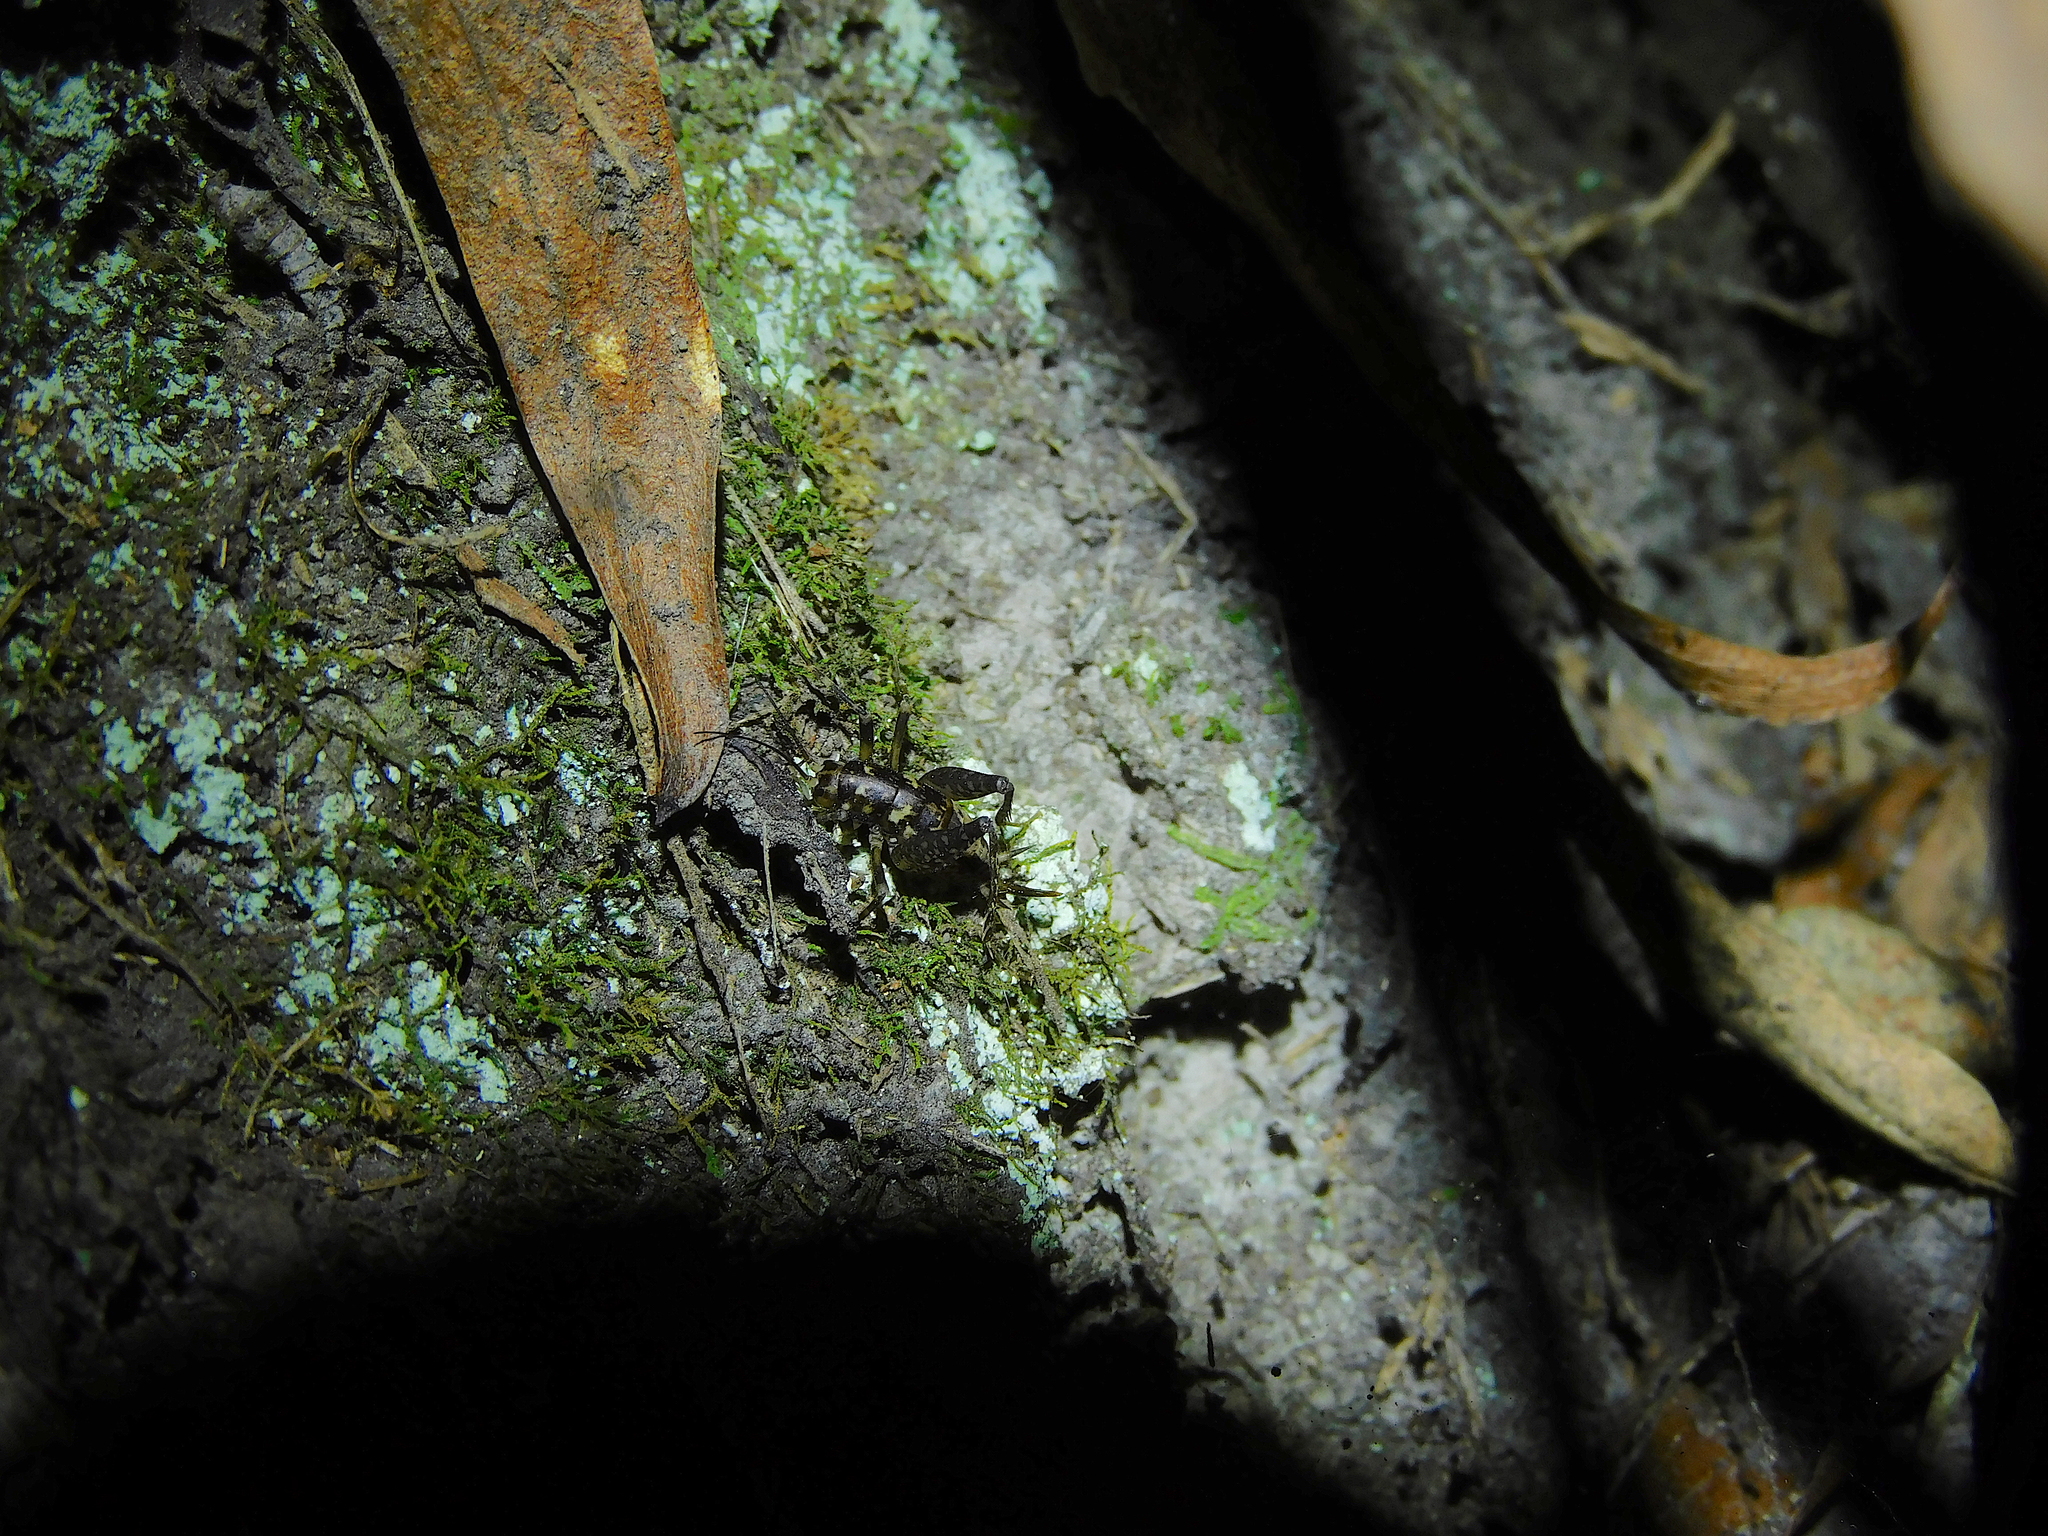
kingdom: Animalia
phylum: Arthropoda
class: Insecta
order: Orthoptera
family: Rhaphidophoridae
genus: Parvotettix
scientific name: Parvotettix domesticus
